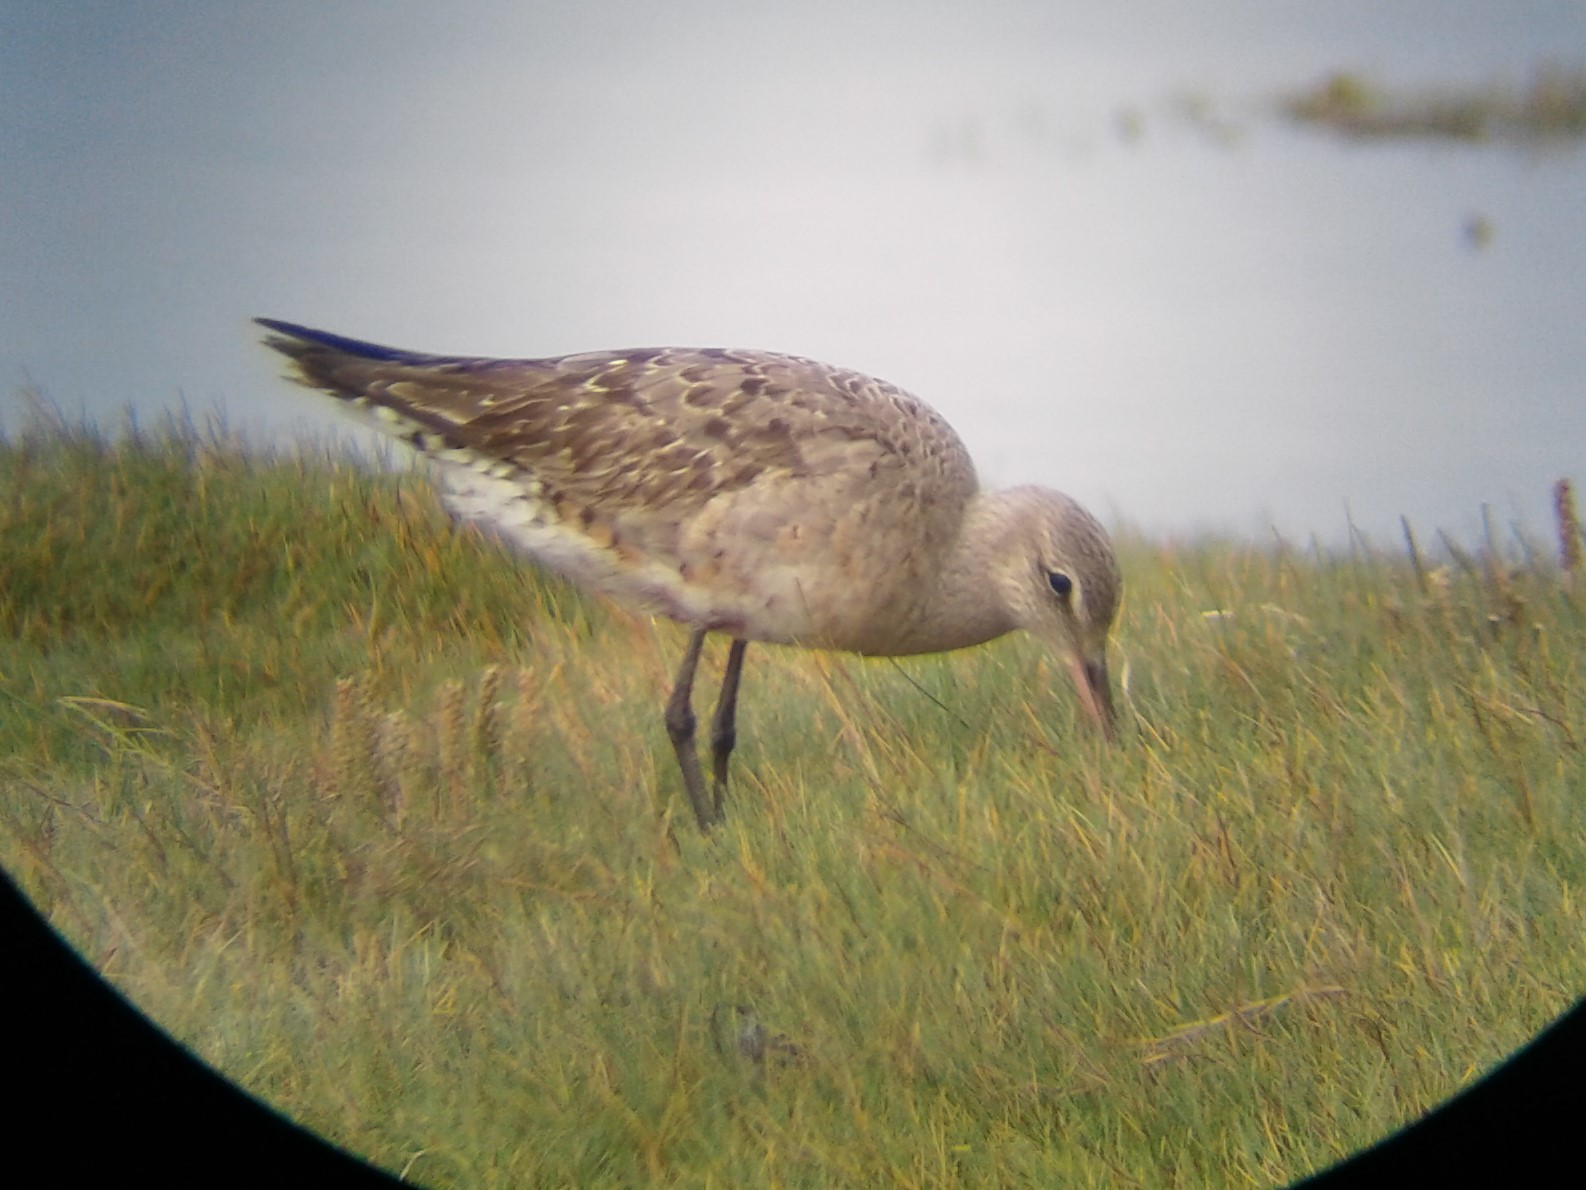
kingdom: Animalia
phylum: Chordata
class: Aves
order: Charadriiformes
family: Scolopacidae
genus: Limosa
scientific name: Limosa haemastica
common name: Hudsonian godwit
